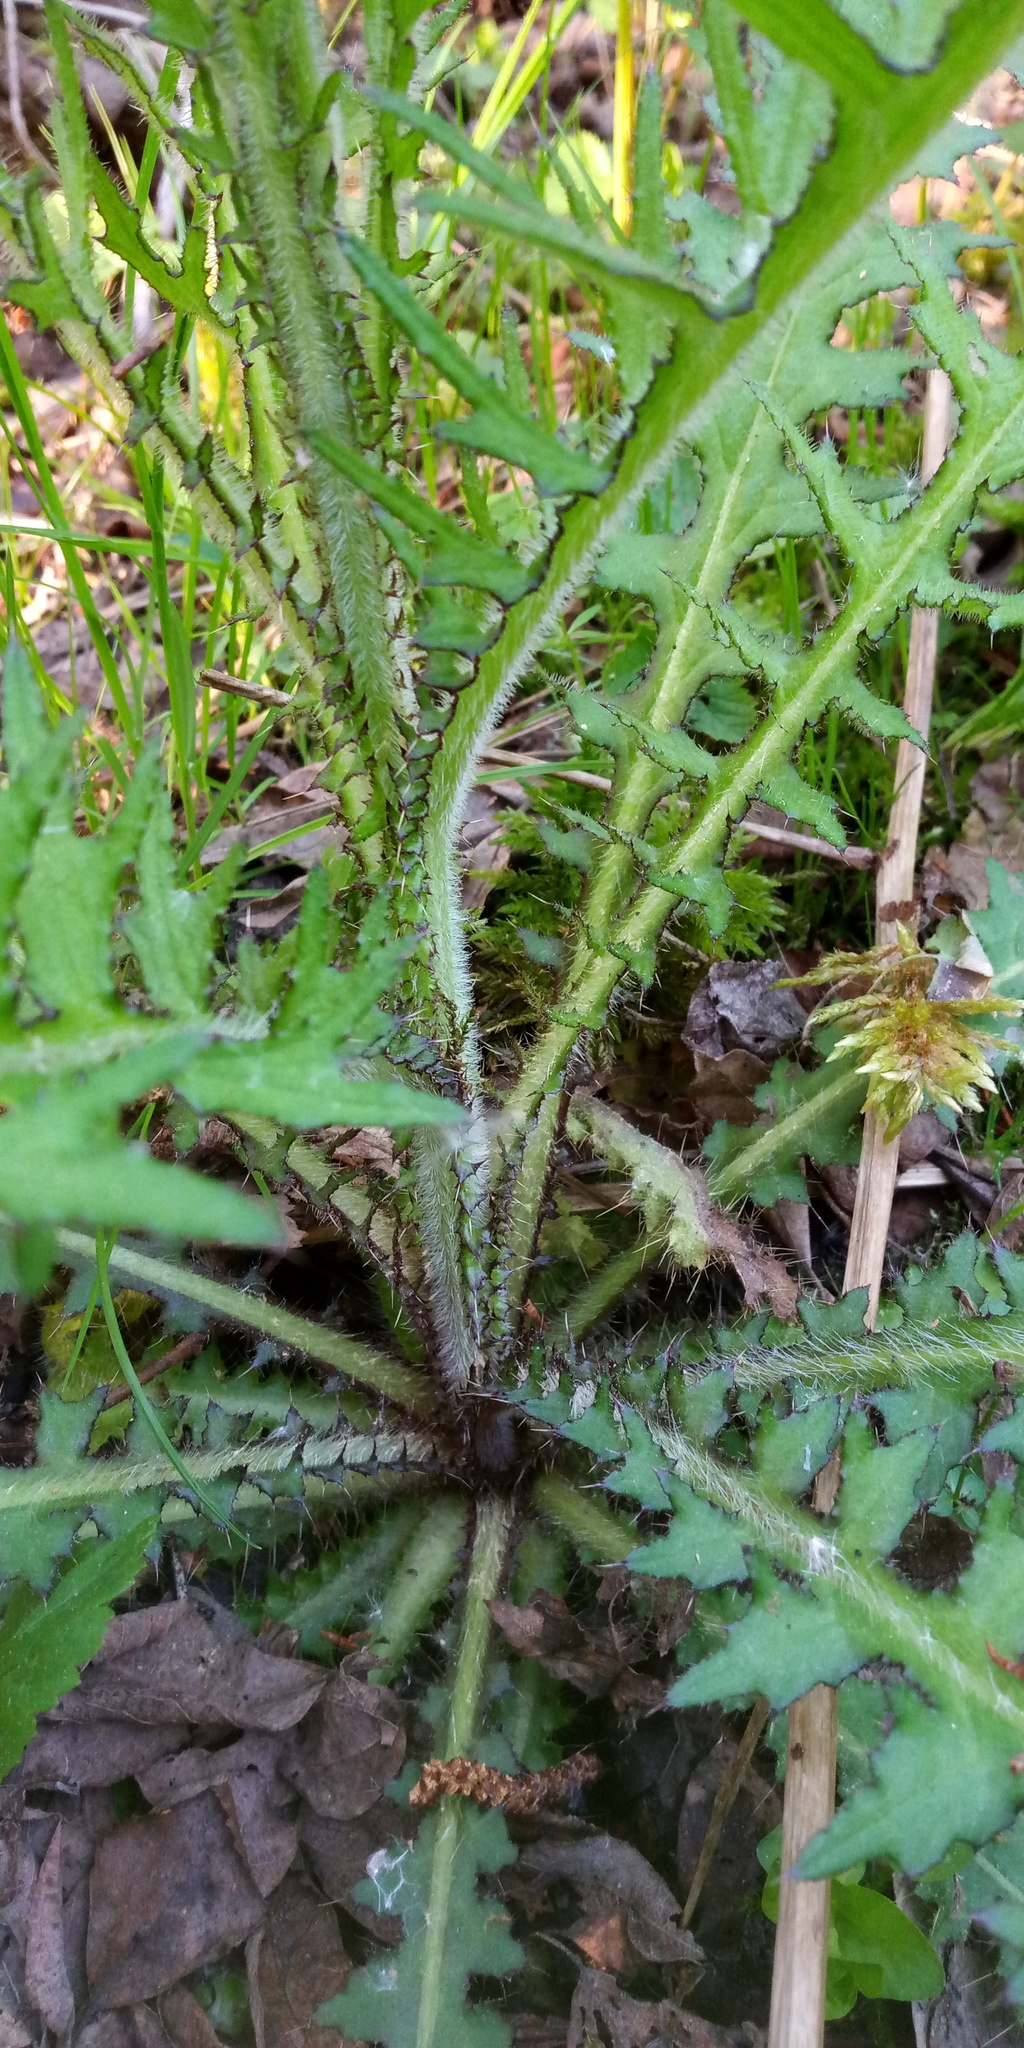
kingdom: Plantae
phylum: Tracheophyta
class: Magnoliopsida
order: Asterales
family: Asteraceae
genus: Cirsium
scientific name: Cirsium palustre
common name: Marsh thistle
